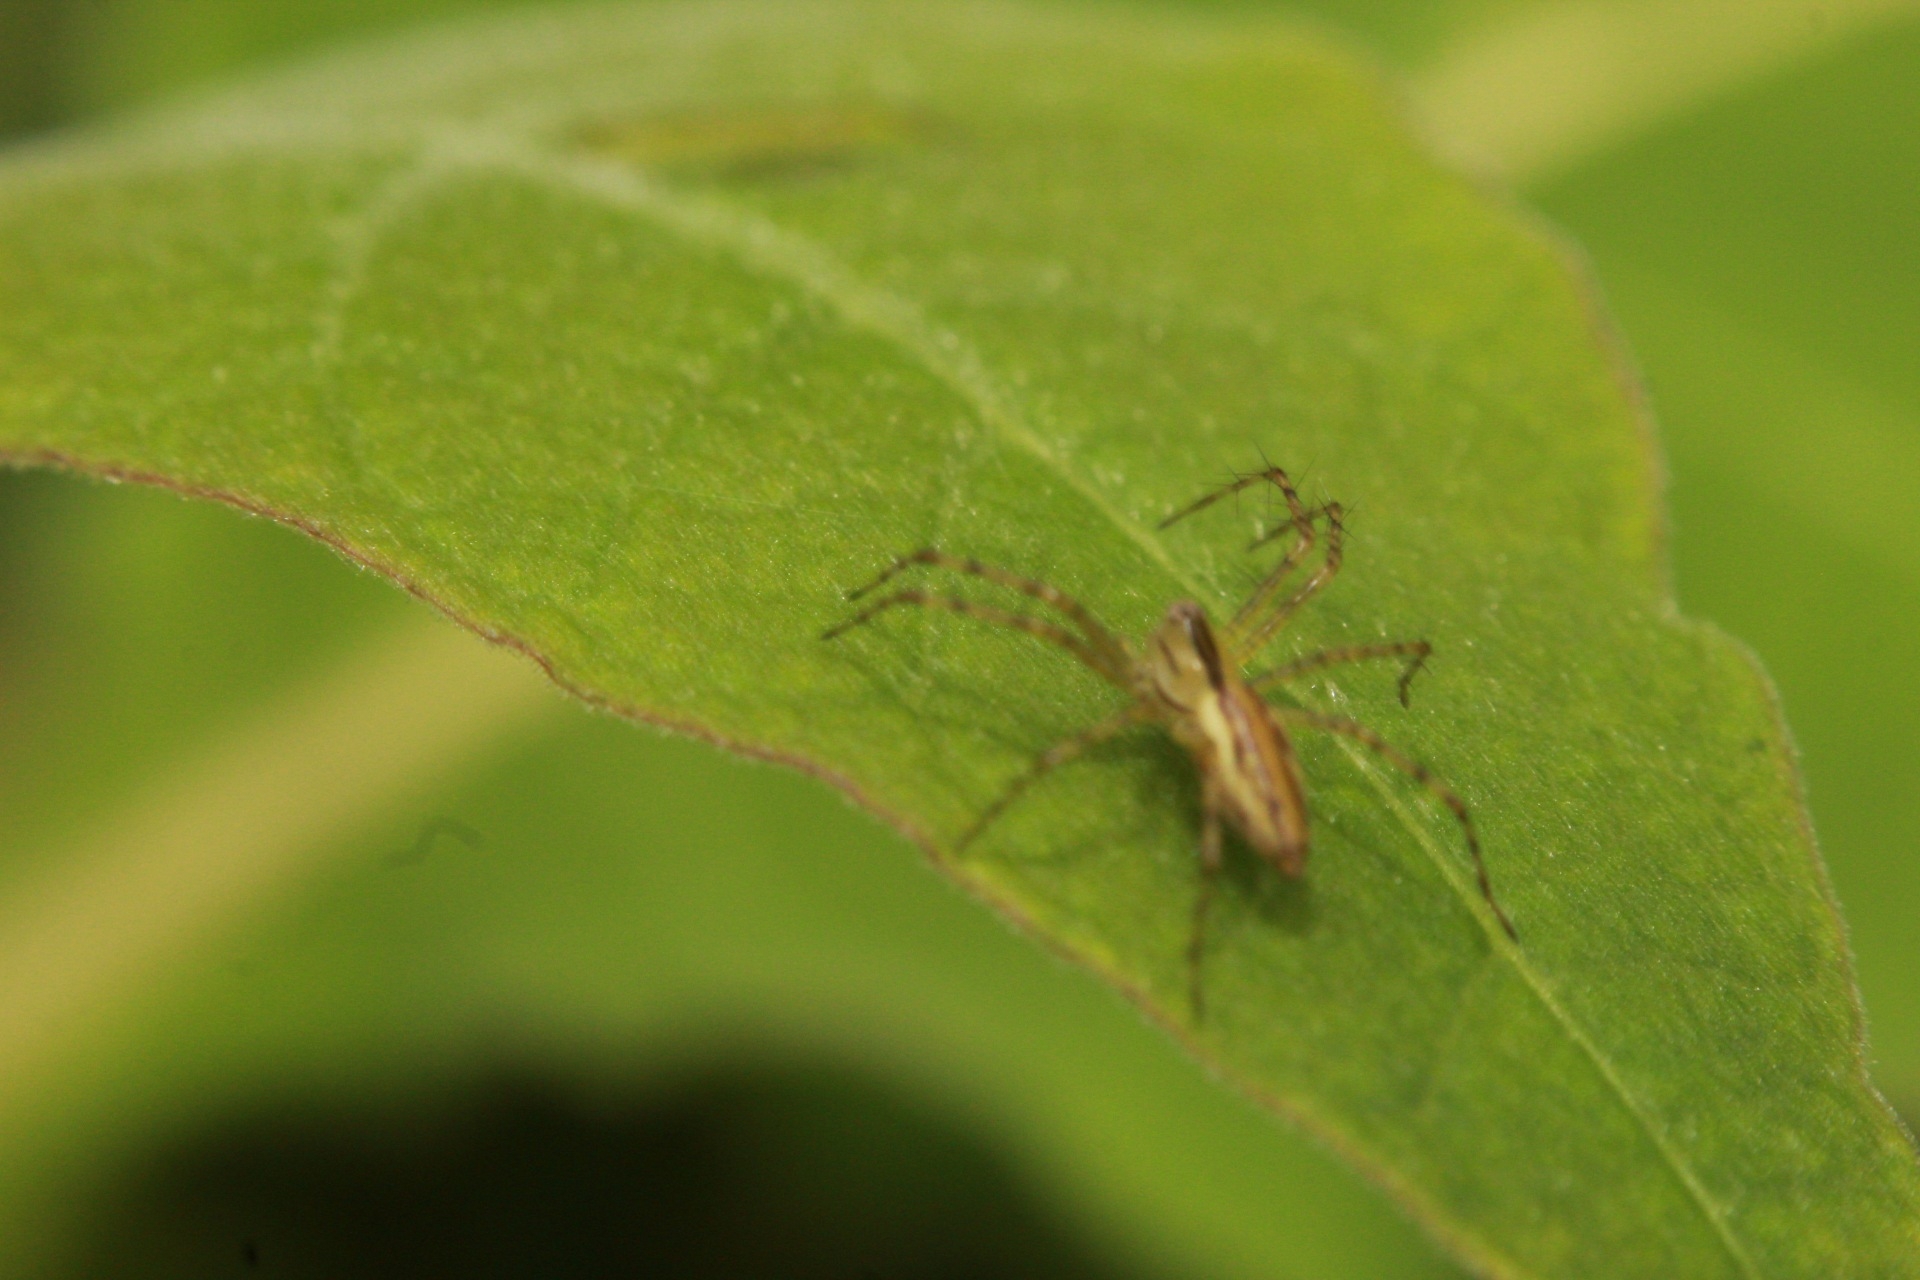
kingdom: Animalia
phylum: Arthropoda
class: Arachnida
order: Araneae
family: Oxyopidae
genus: Peucetia
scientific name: Peucetia rubrolineata
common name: Lynx spiders
